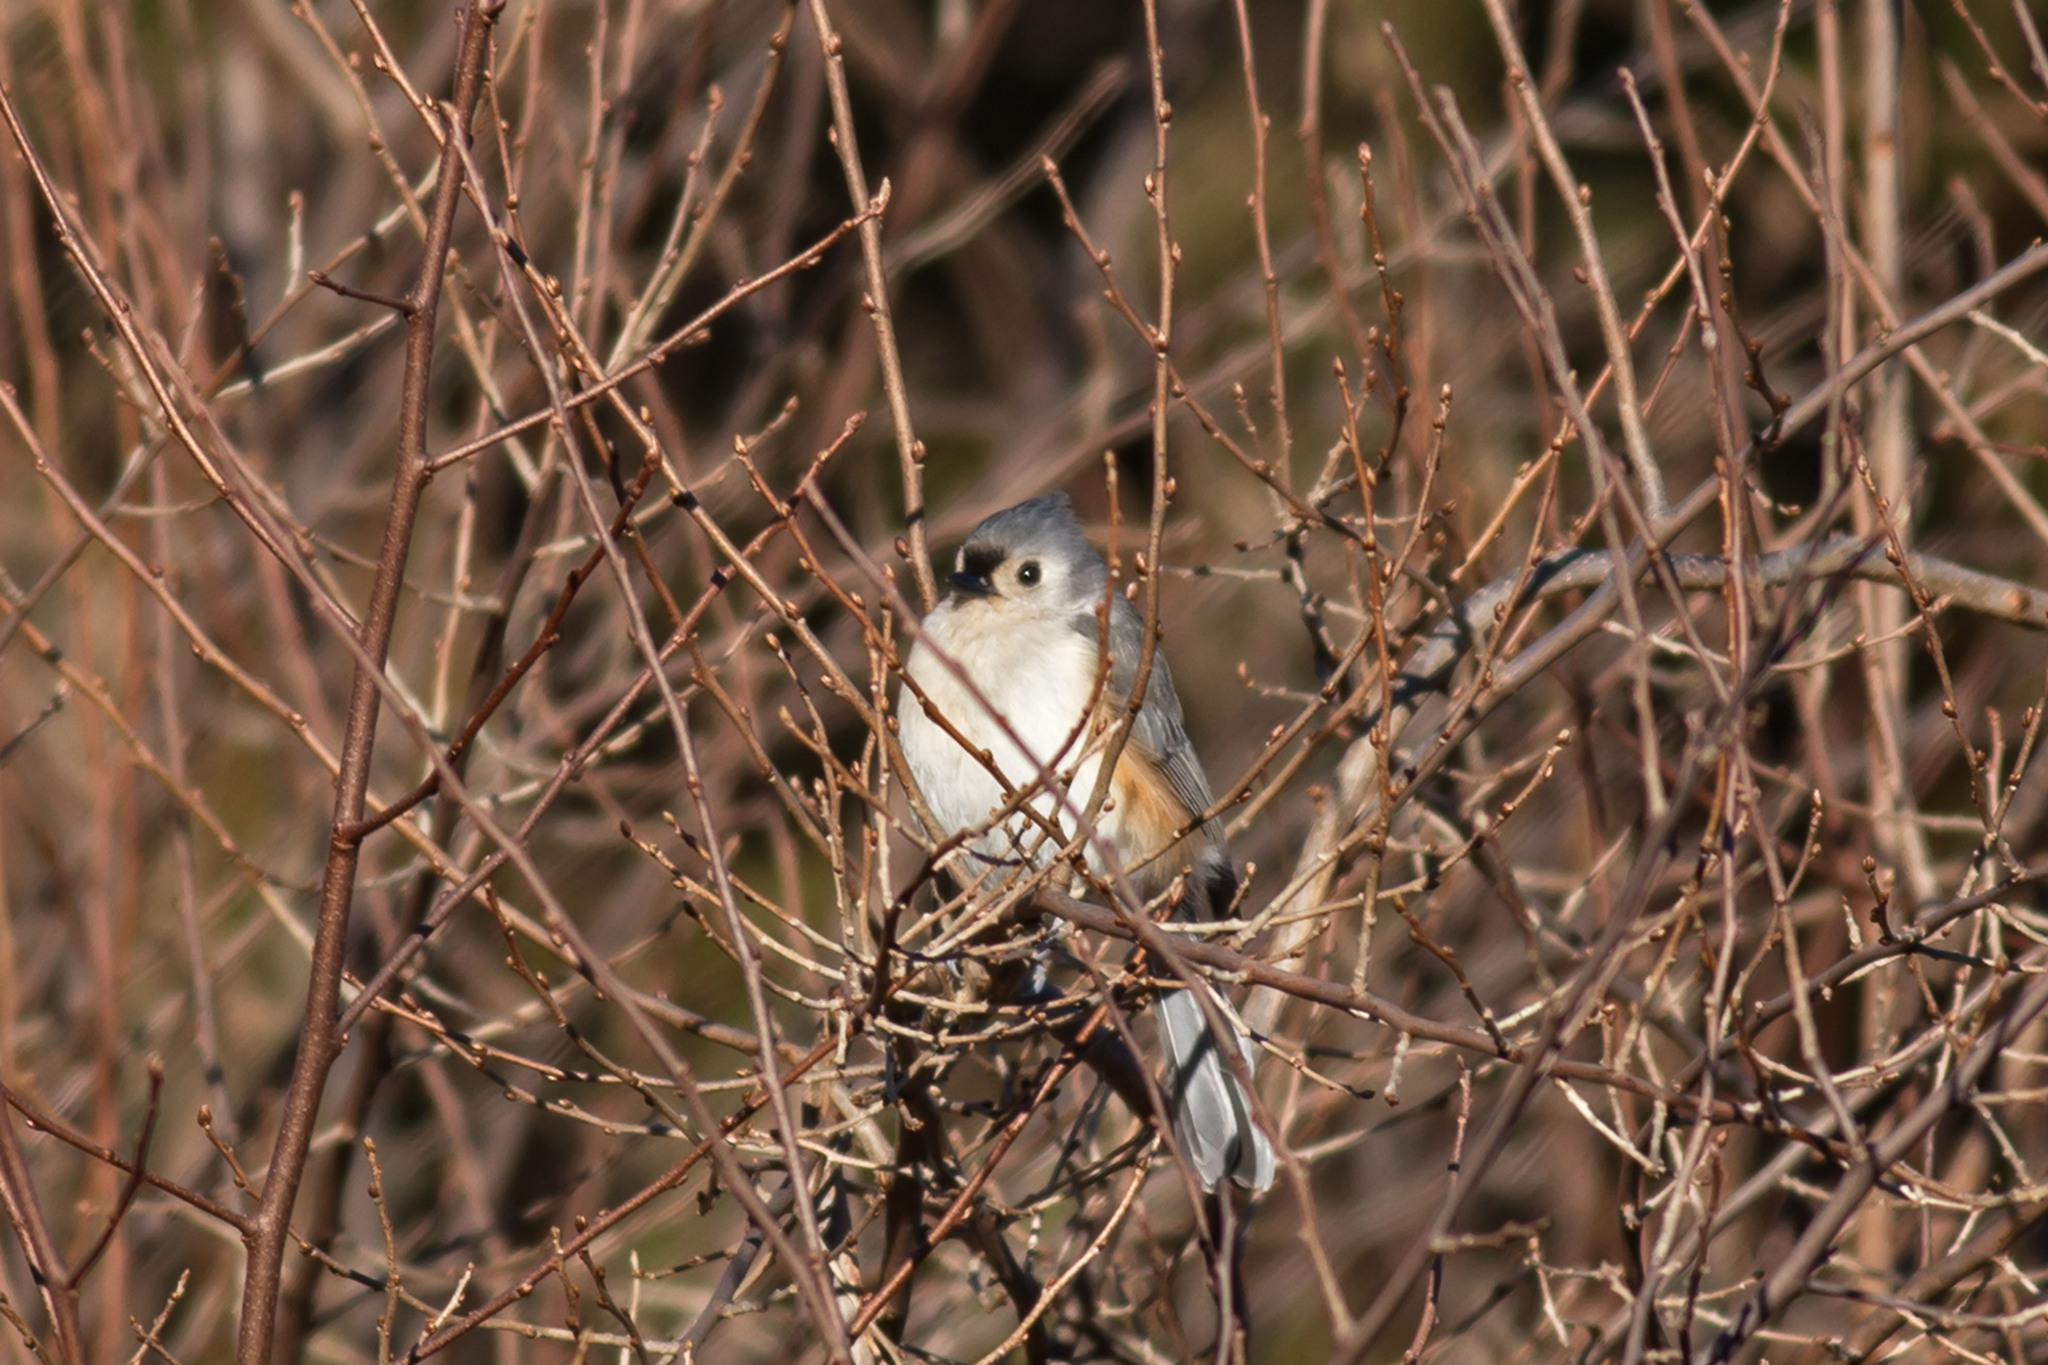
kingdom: Animalia
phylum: Chordata
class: Aves
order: Passeriformes
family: Paridae
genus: Baeolophus
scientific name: Baeolophus bicolor
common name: Tufted titmouse
